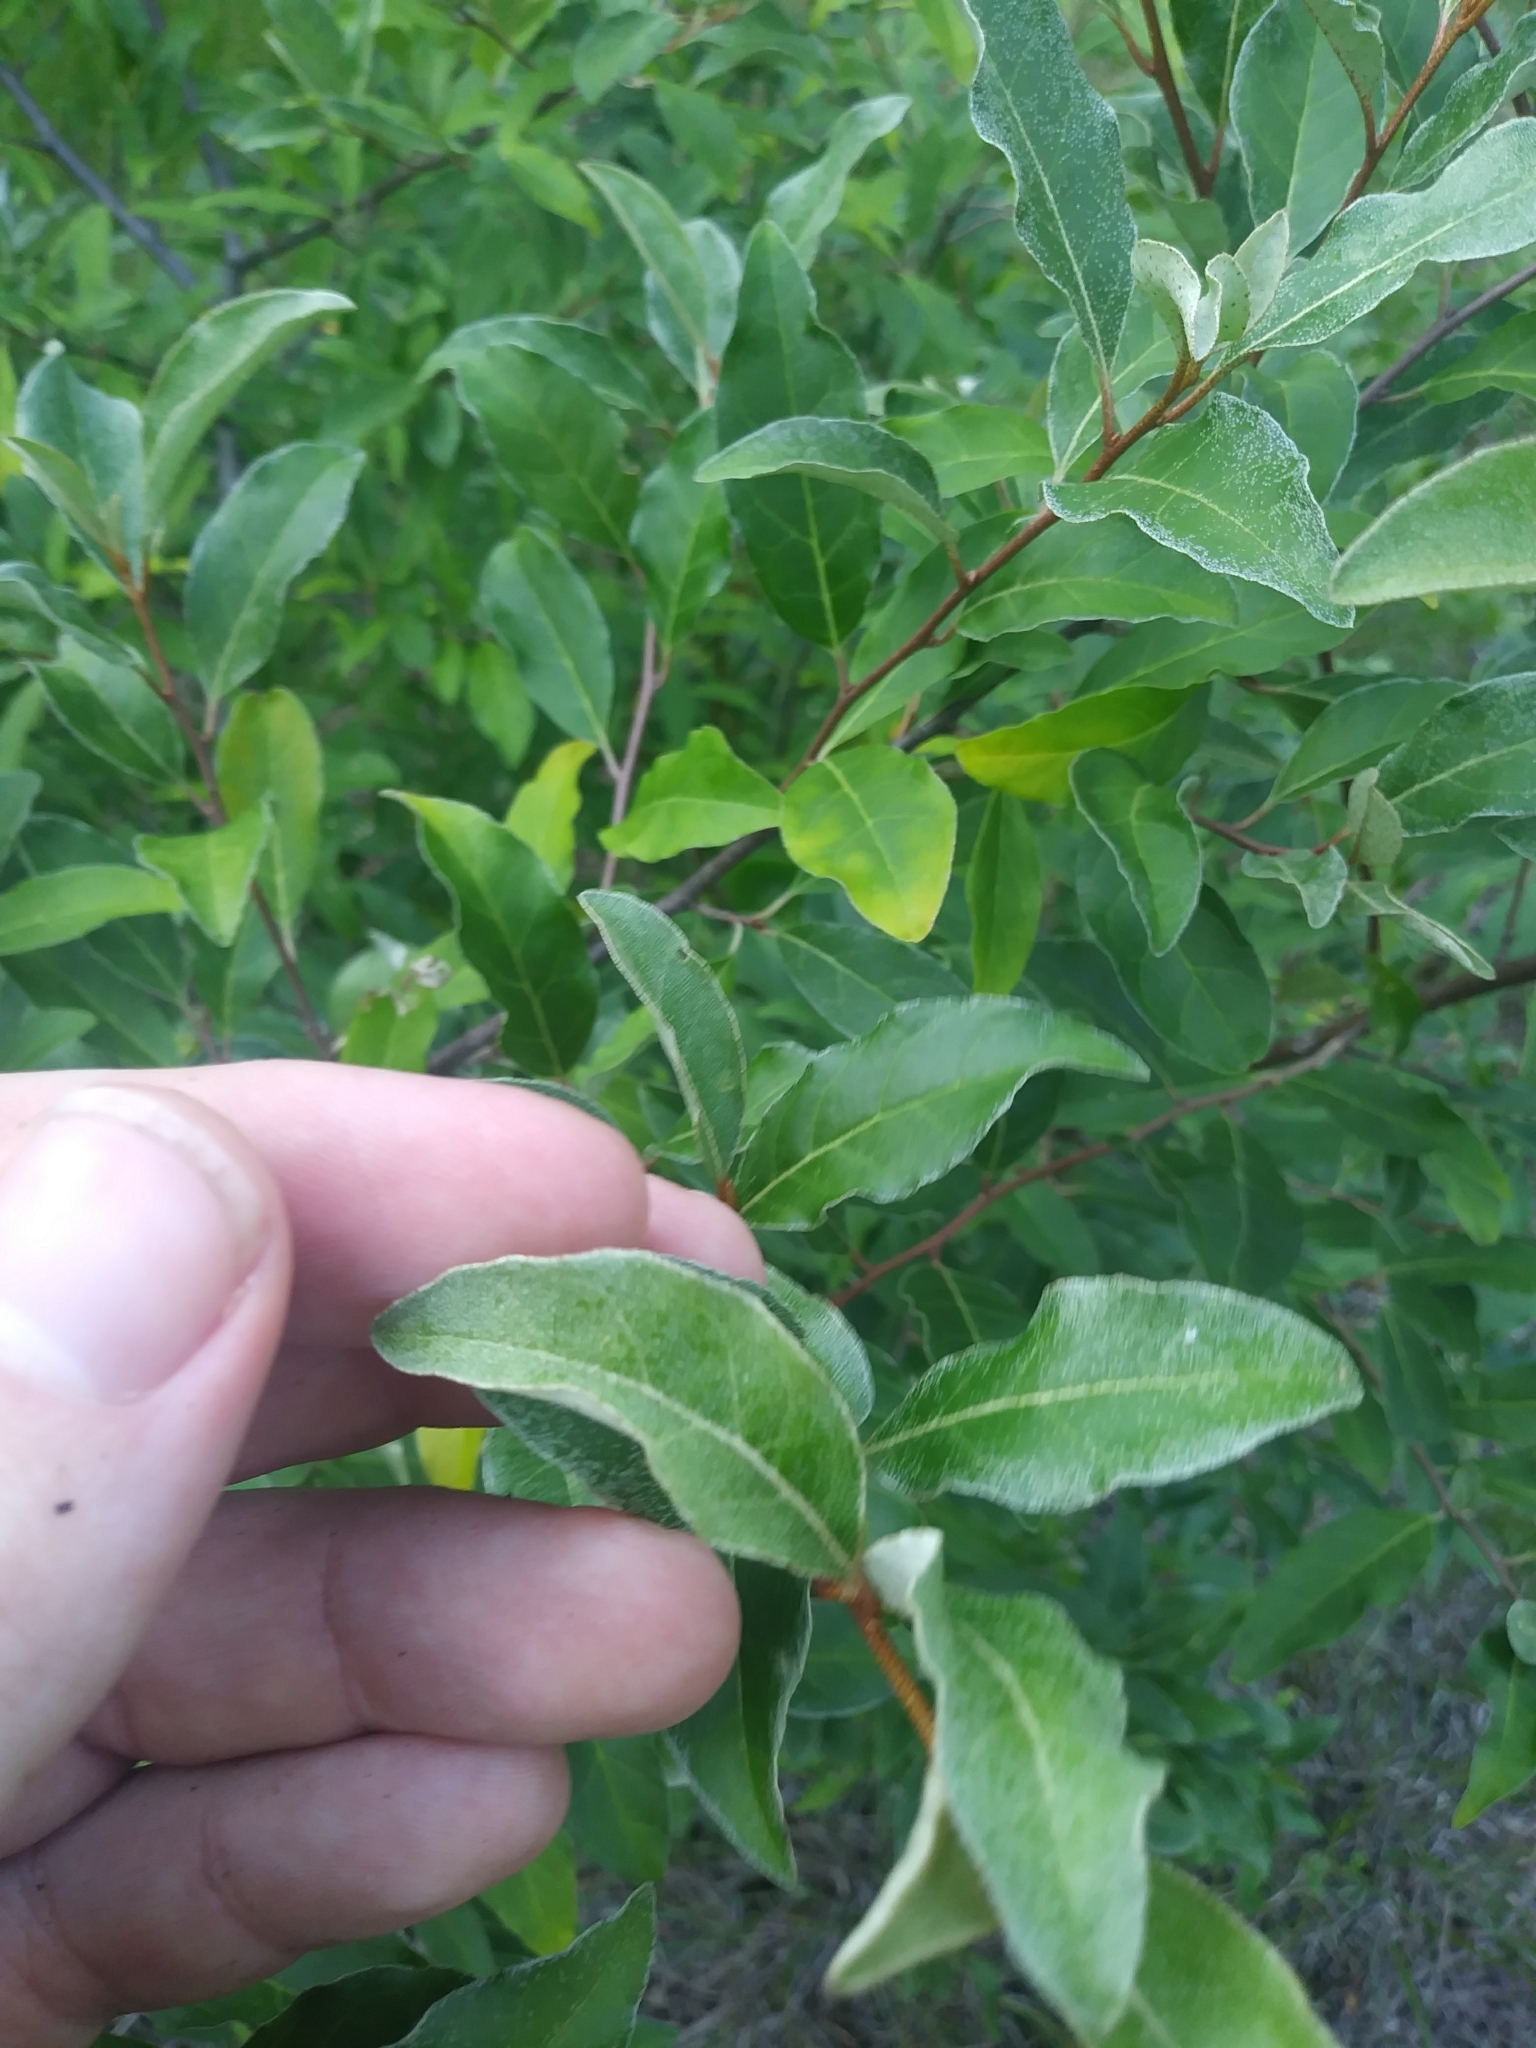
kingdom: Plantae
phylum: Tracheophyta
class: Magnoliopsida
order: Rosales
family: Elaeagnaceae
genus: Elaeagnus
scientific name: Elaeagnus umbellata
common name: Autumn olive
